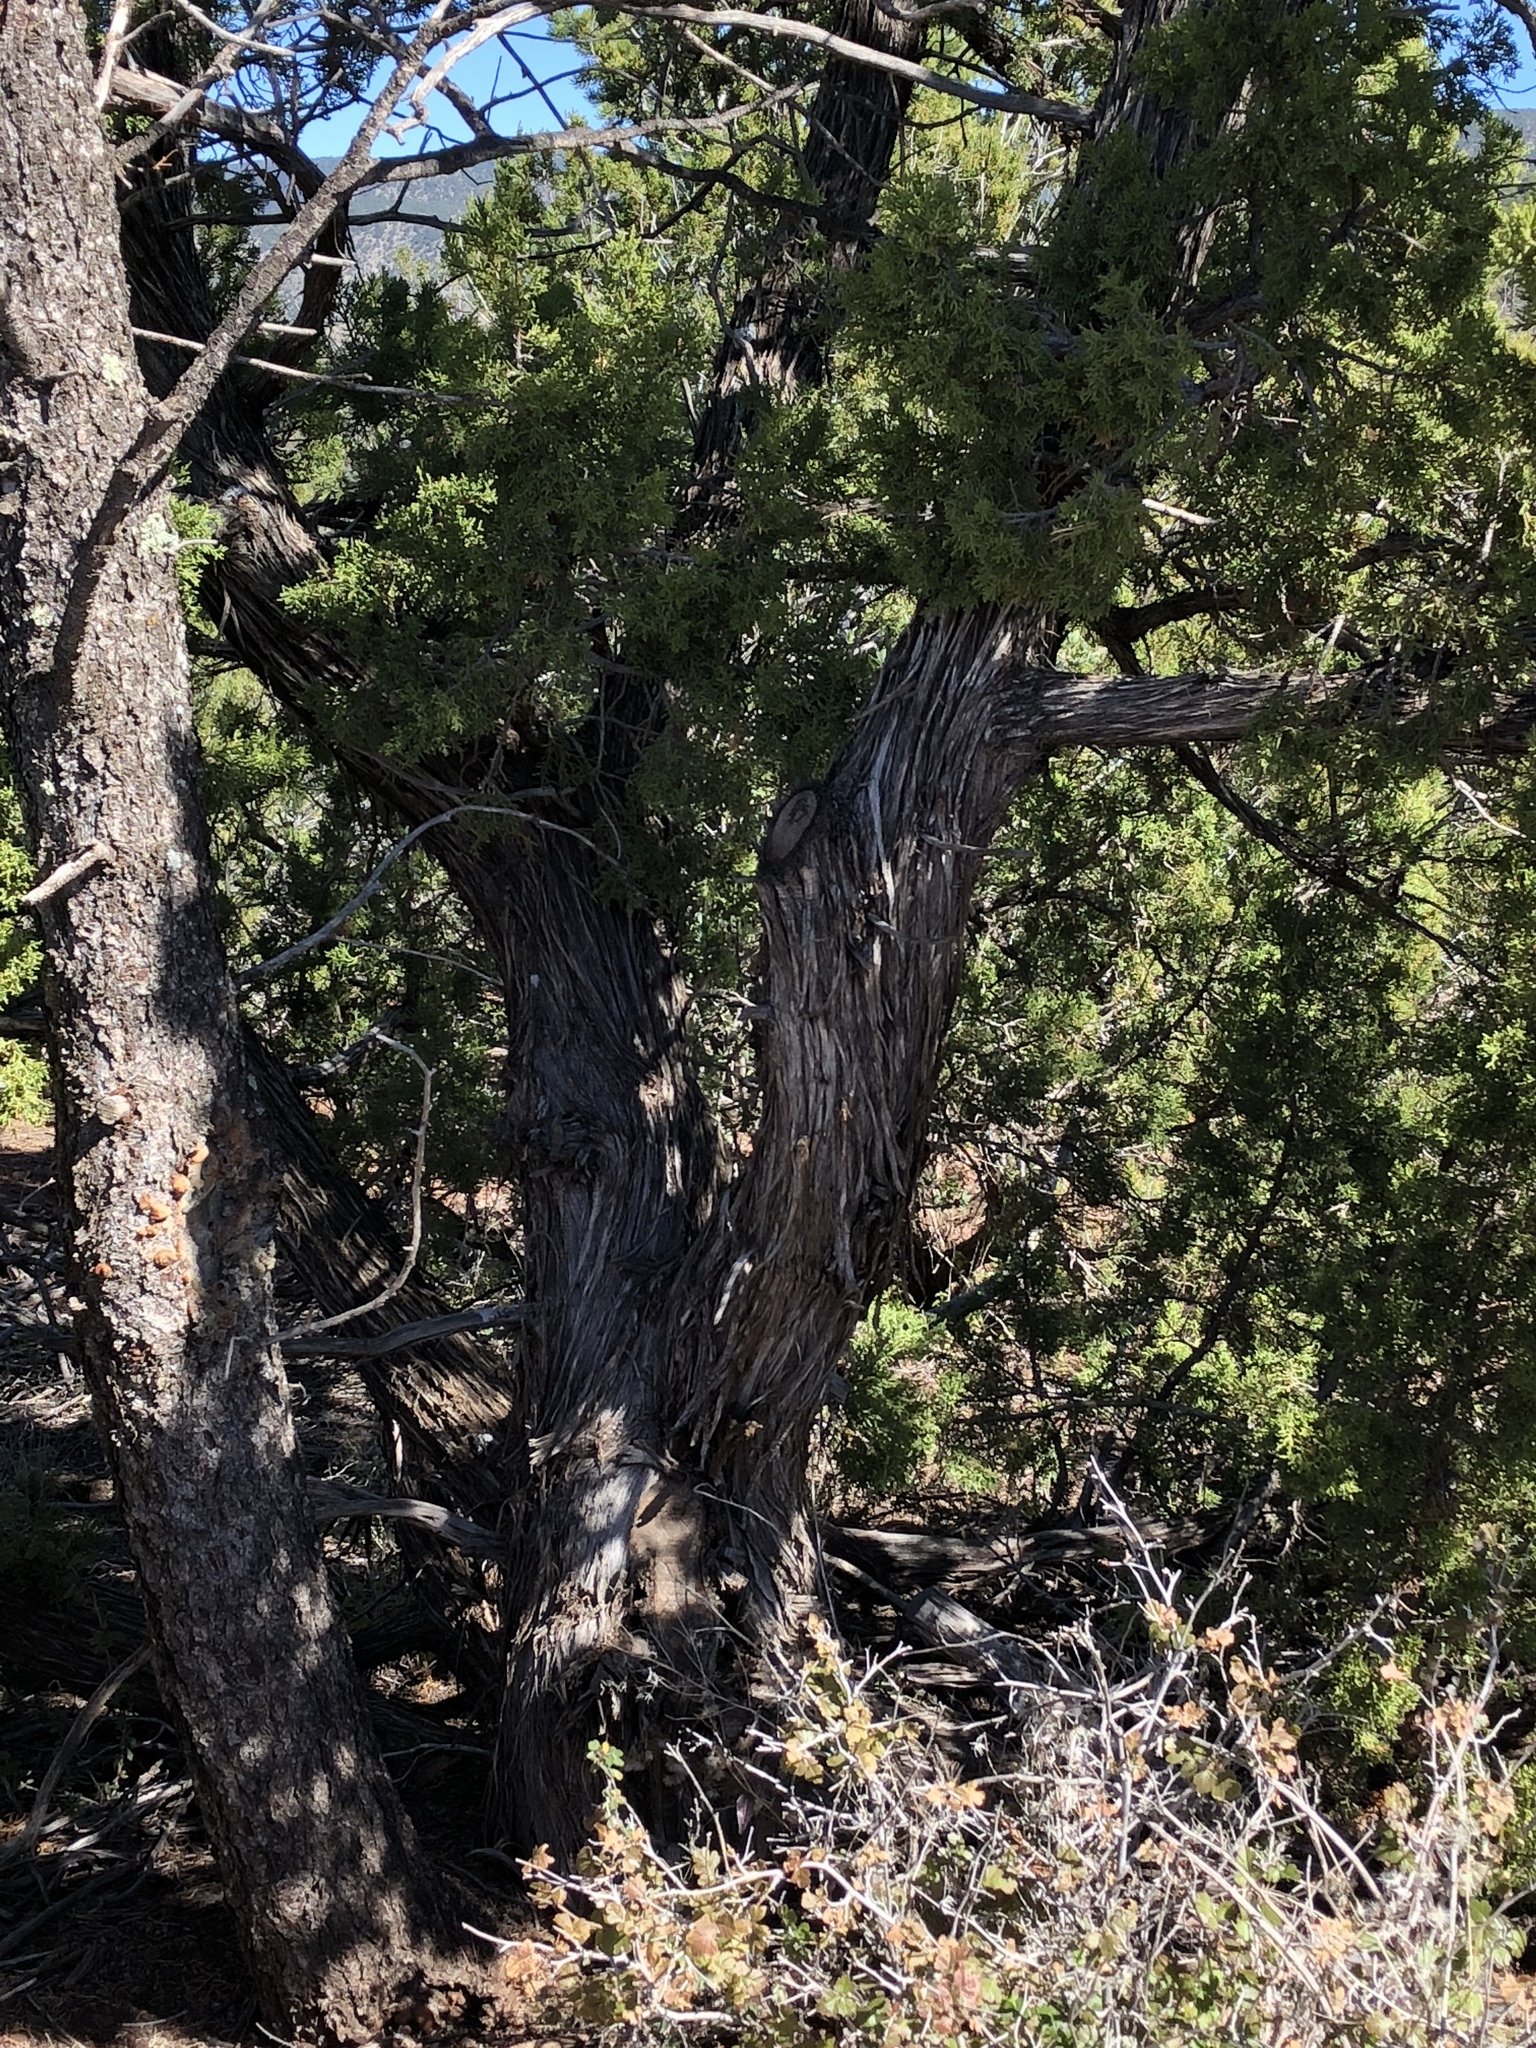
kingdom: Plantae
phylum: Tracheophyta
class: Pinopsida
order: Pinales
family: Cupressaceae
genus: Juniperus
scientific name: Juniperus monosperma
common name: One-seed juniper
